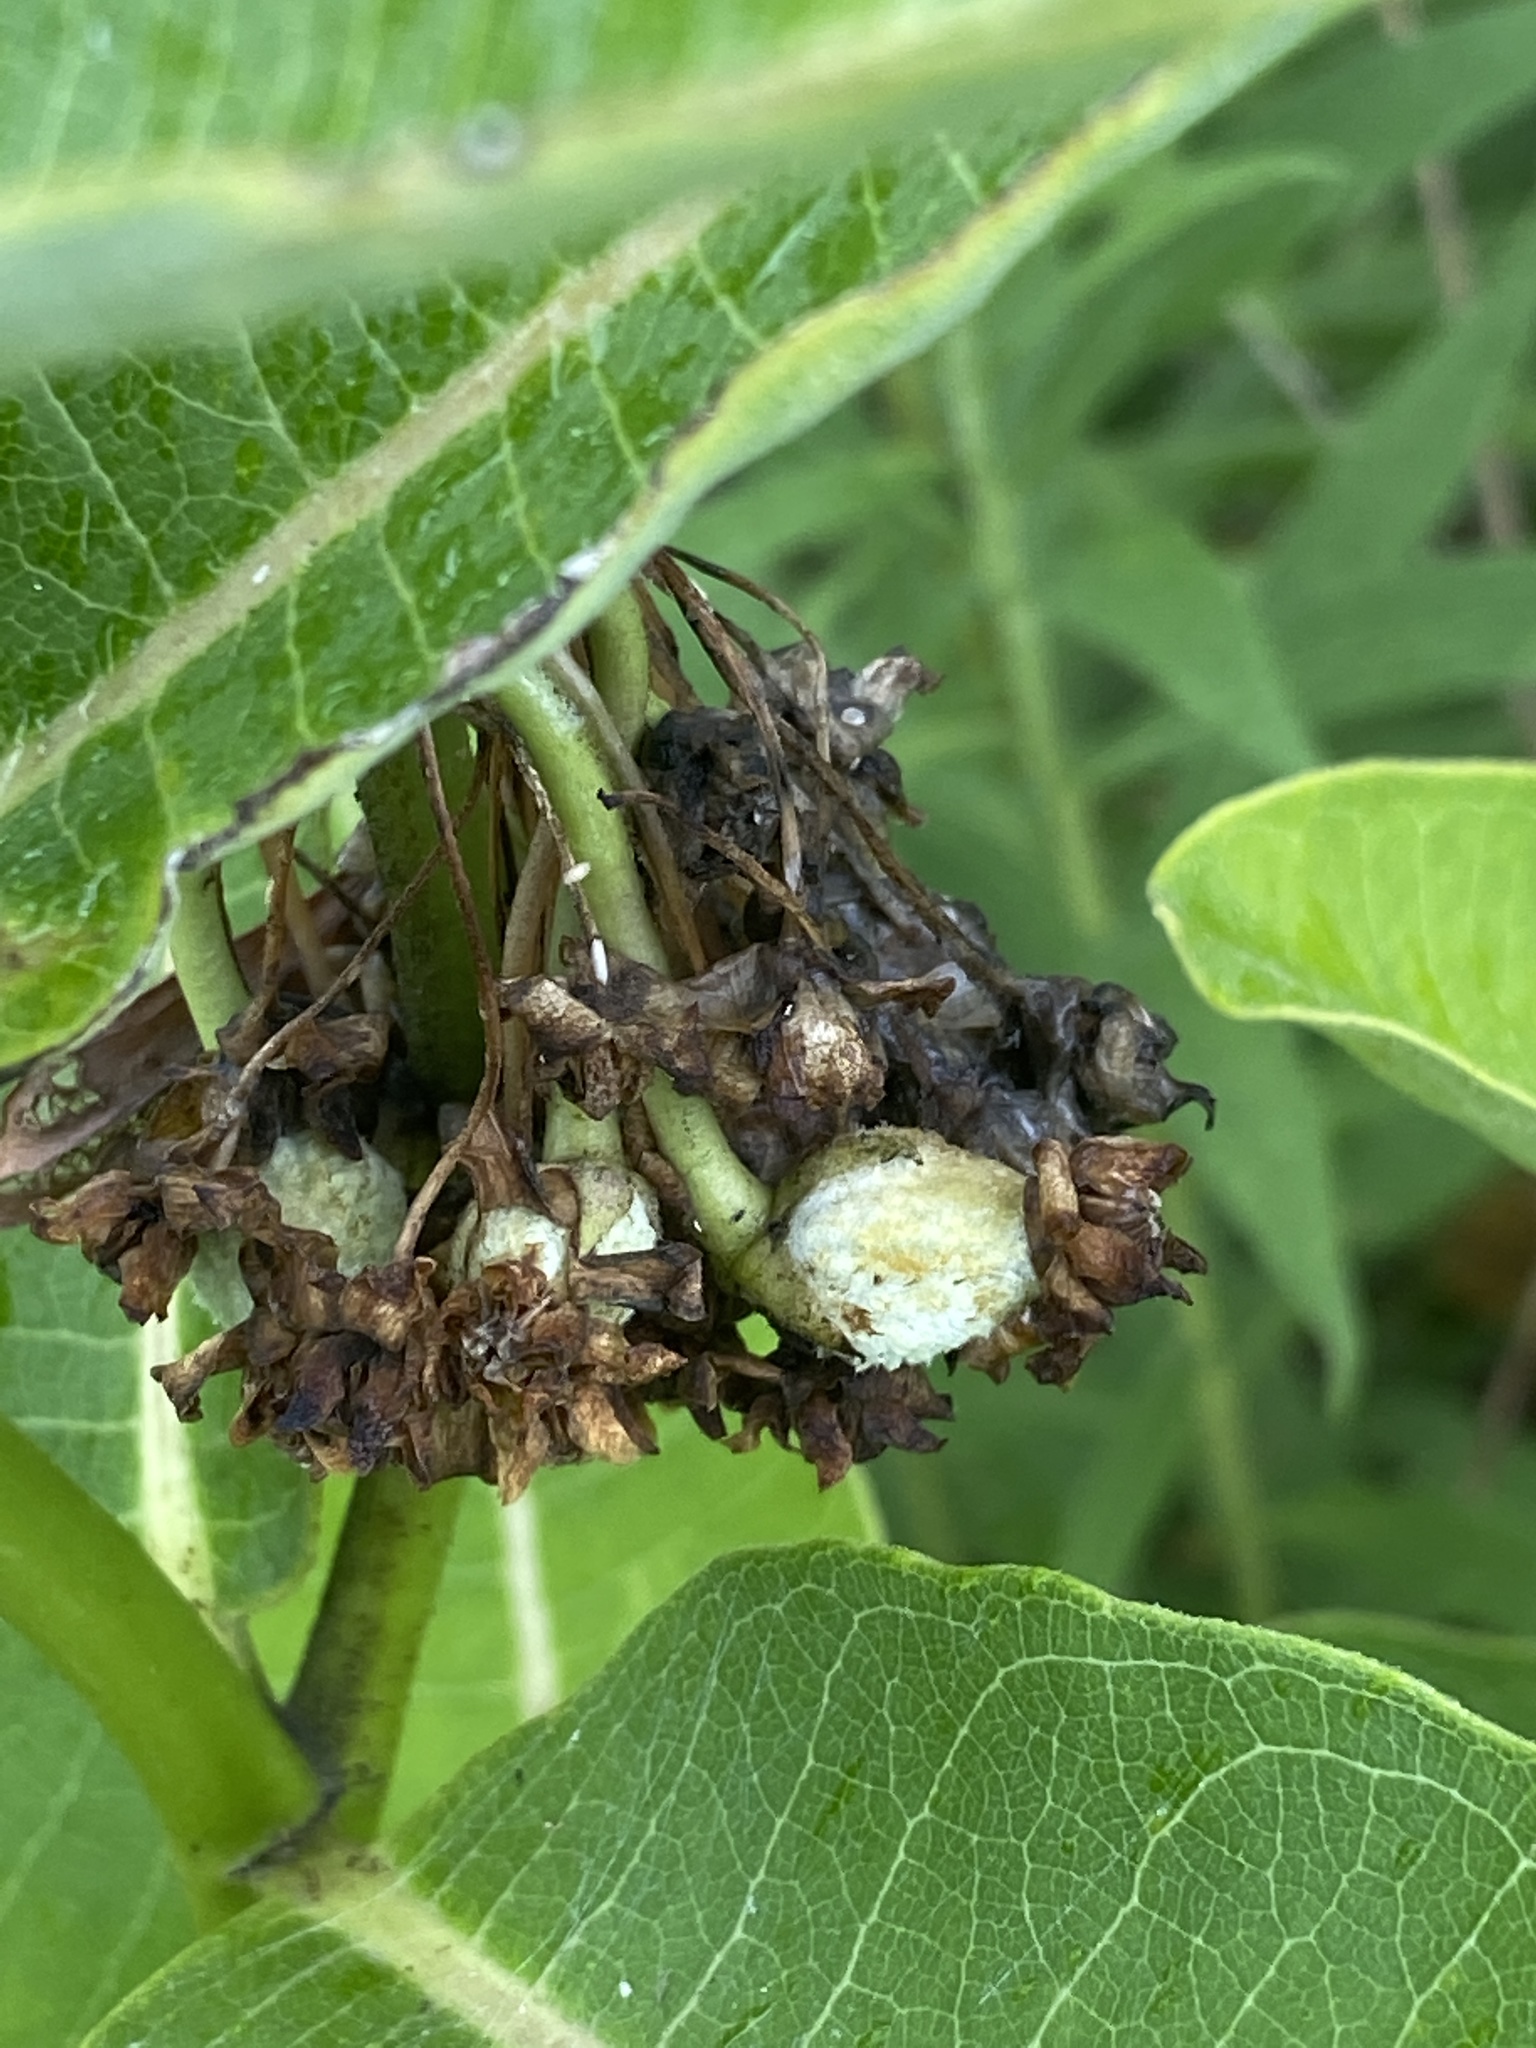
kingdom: Plantae
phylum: Tracheophyta
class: Magnoliopsida
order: Gentianales
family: Apocynaceae
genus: Asclepias
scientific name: Asclepias syriaca
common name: Common milkweed
